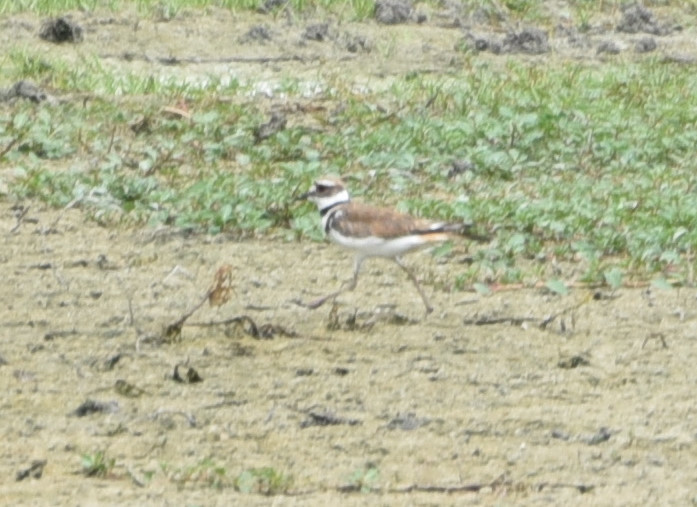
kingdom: Animalia
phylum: Chordata
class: Aves
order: Charadriiformes
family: Charadriidae
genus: Charadrius
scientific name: Charadrius vociferus
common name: Killdeer
